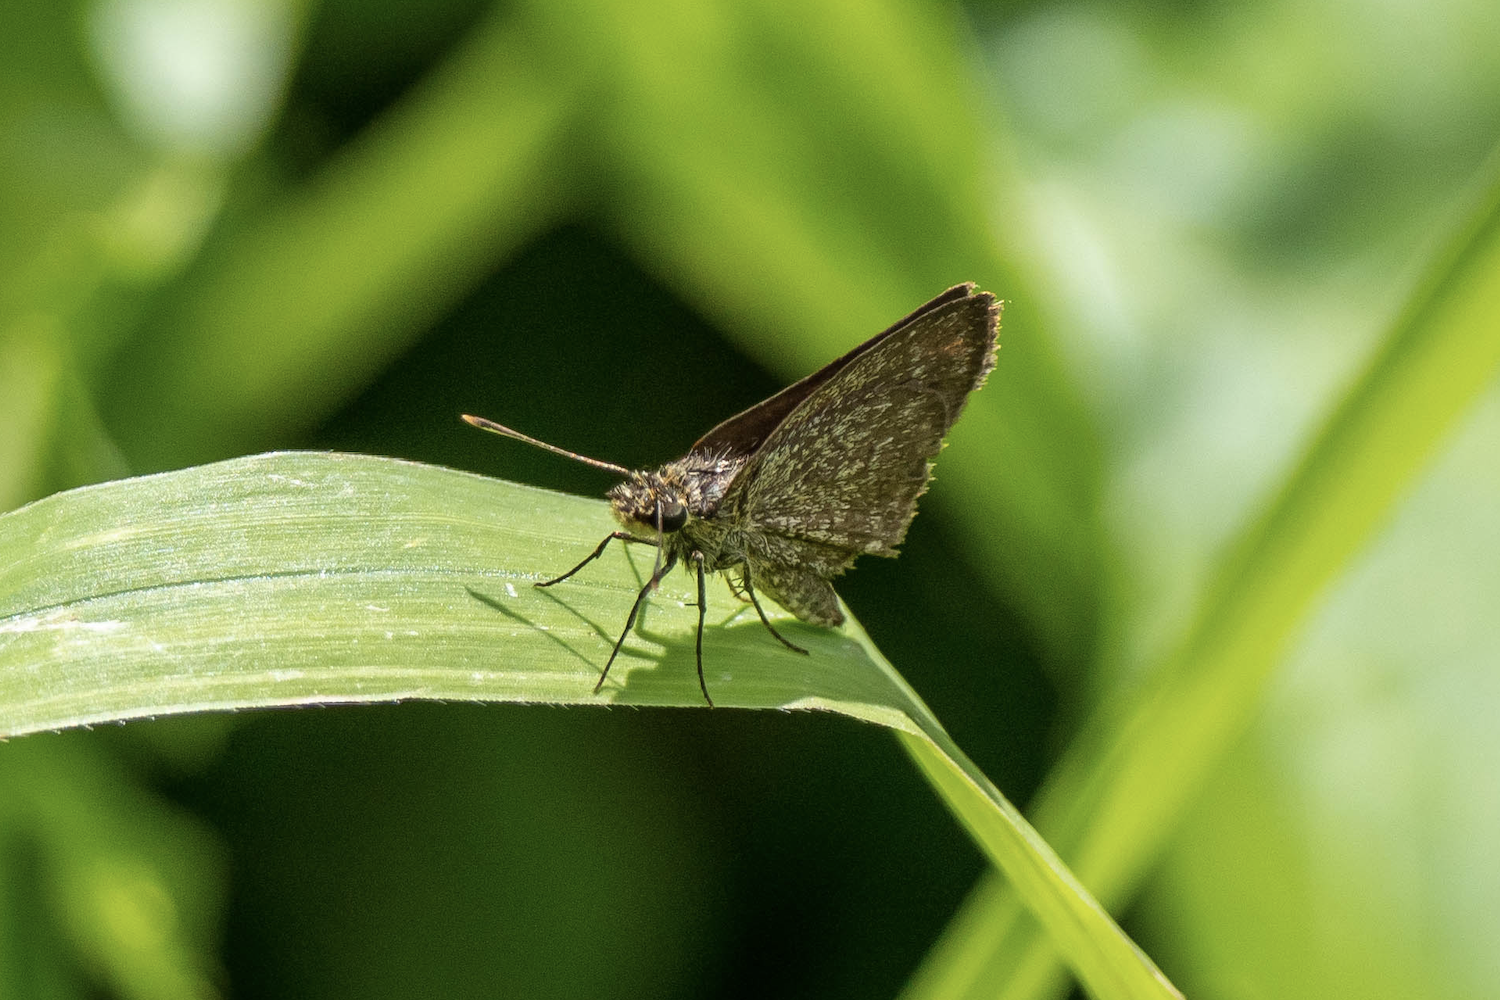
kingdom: Animalia
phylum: Arthropoda
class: Insecta
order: Lepidoptera
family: Hesperiidae
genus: Aeromachus
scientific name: Aeromachus jhora
